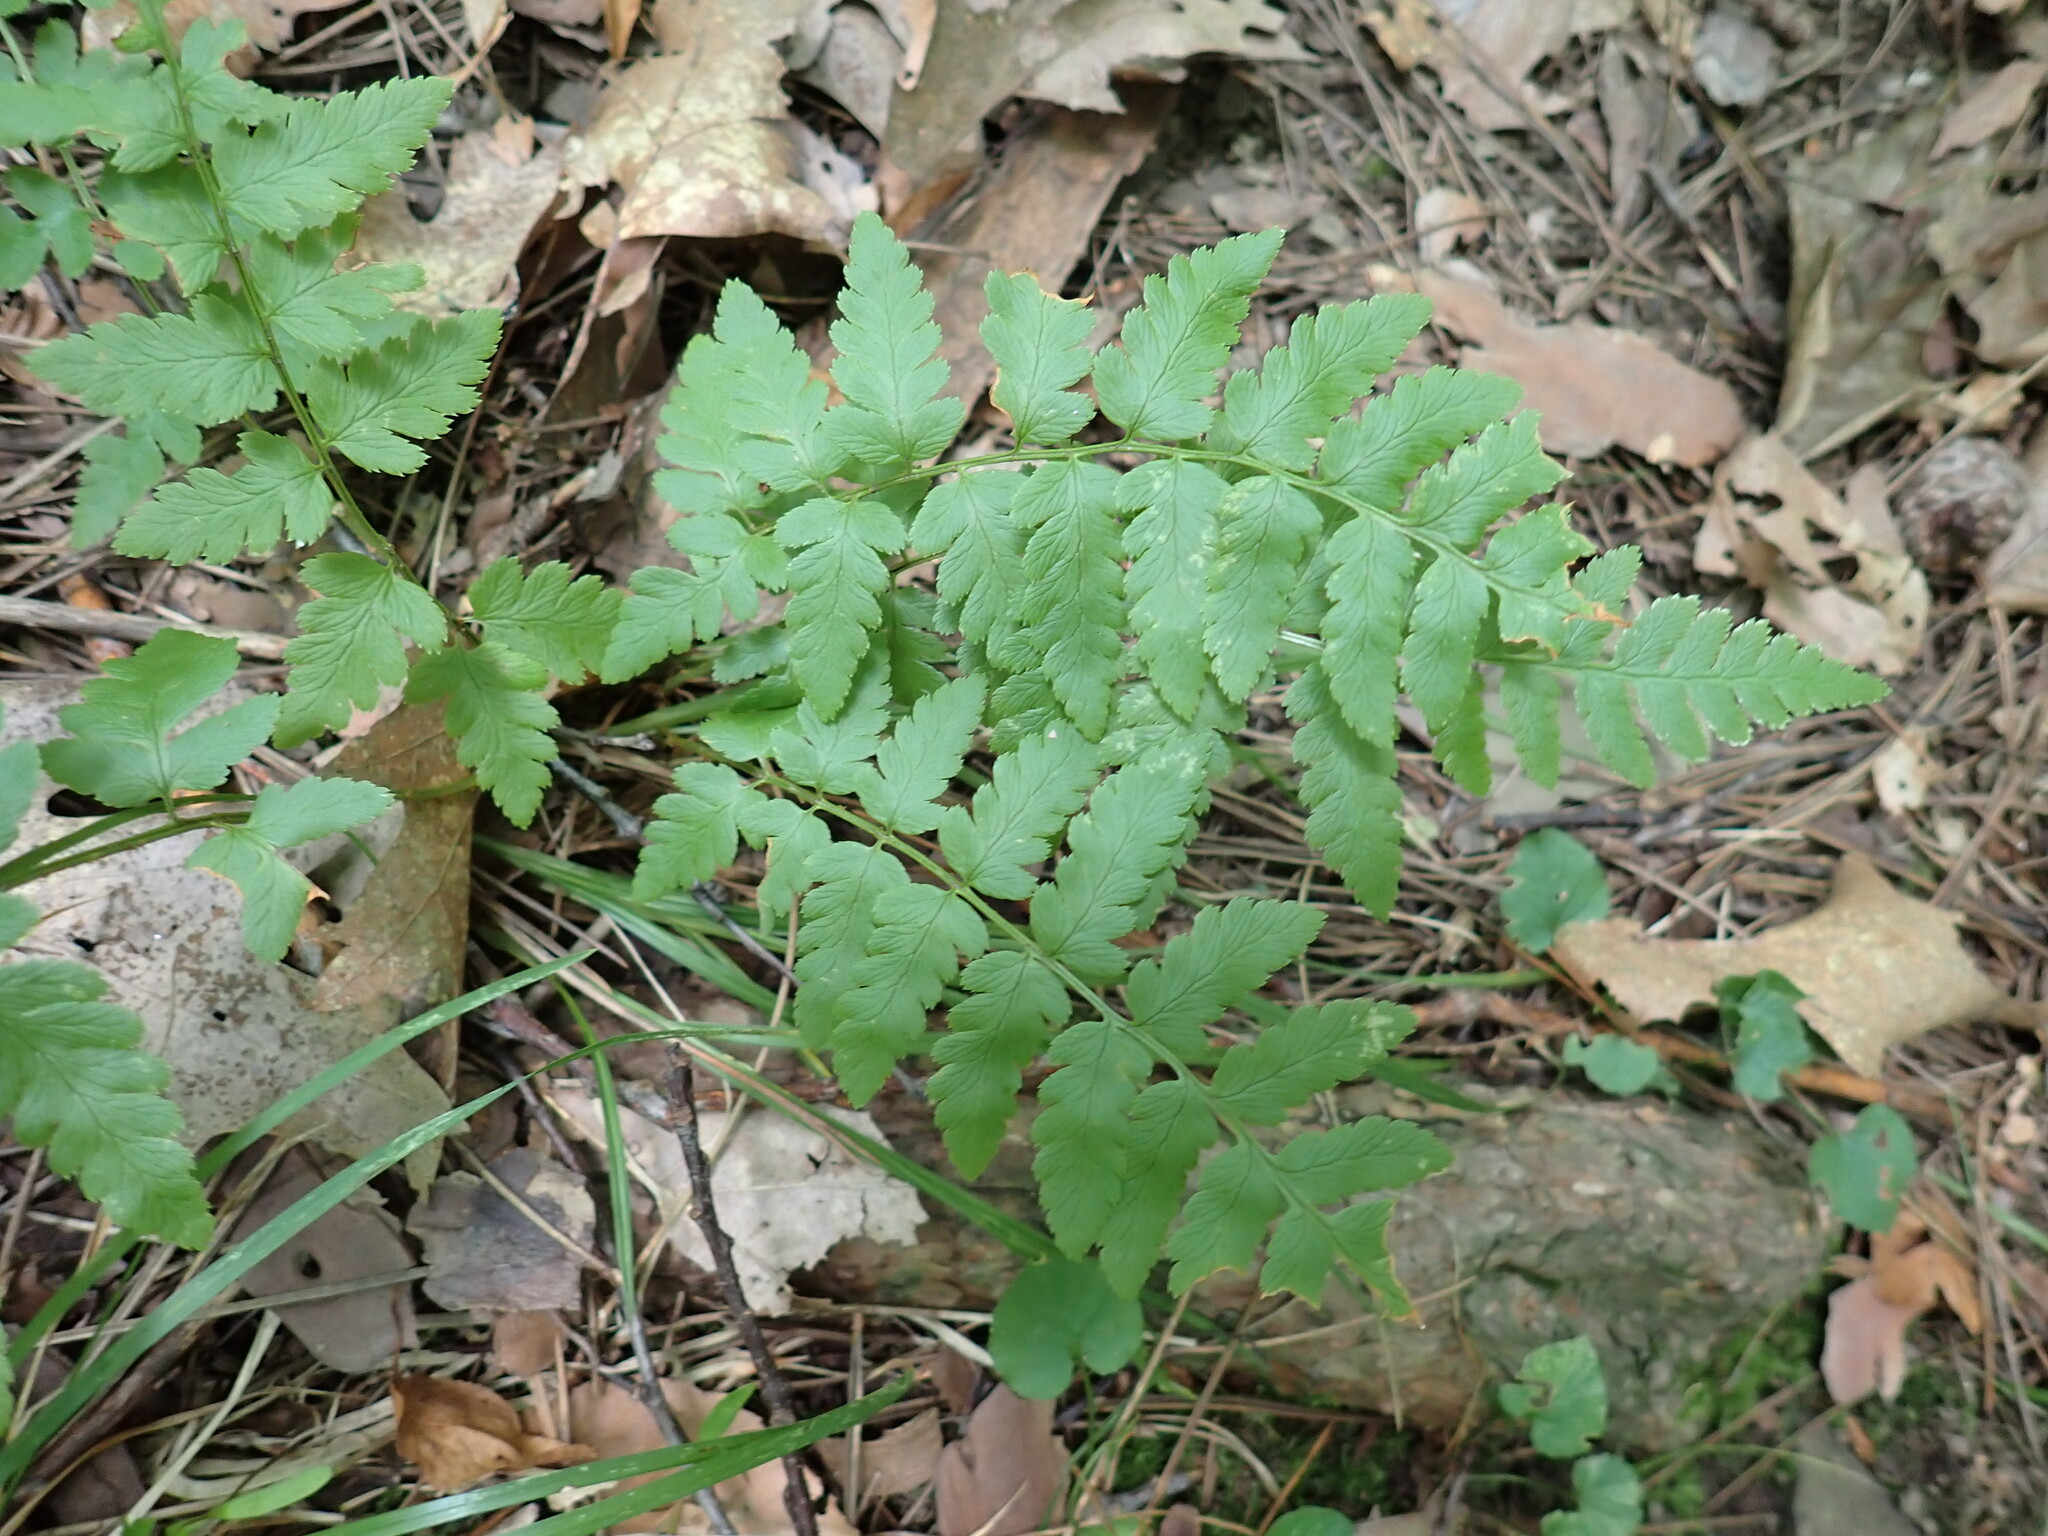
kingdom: Plantae
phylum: Tracheophyta
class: Polypodiopsida
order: Polypodiales
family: Dryopteridaceae
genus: Dryopteris
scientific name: Dryopteris cristata
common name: Crested wood fern
